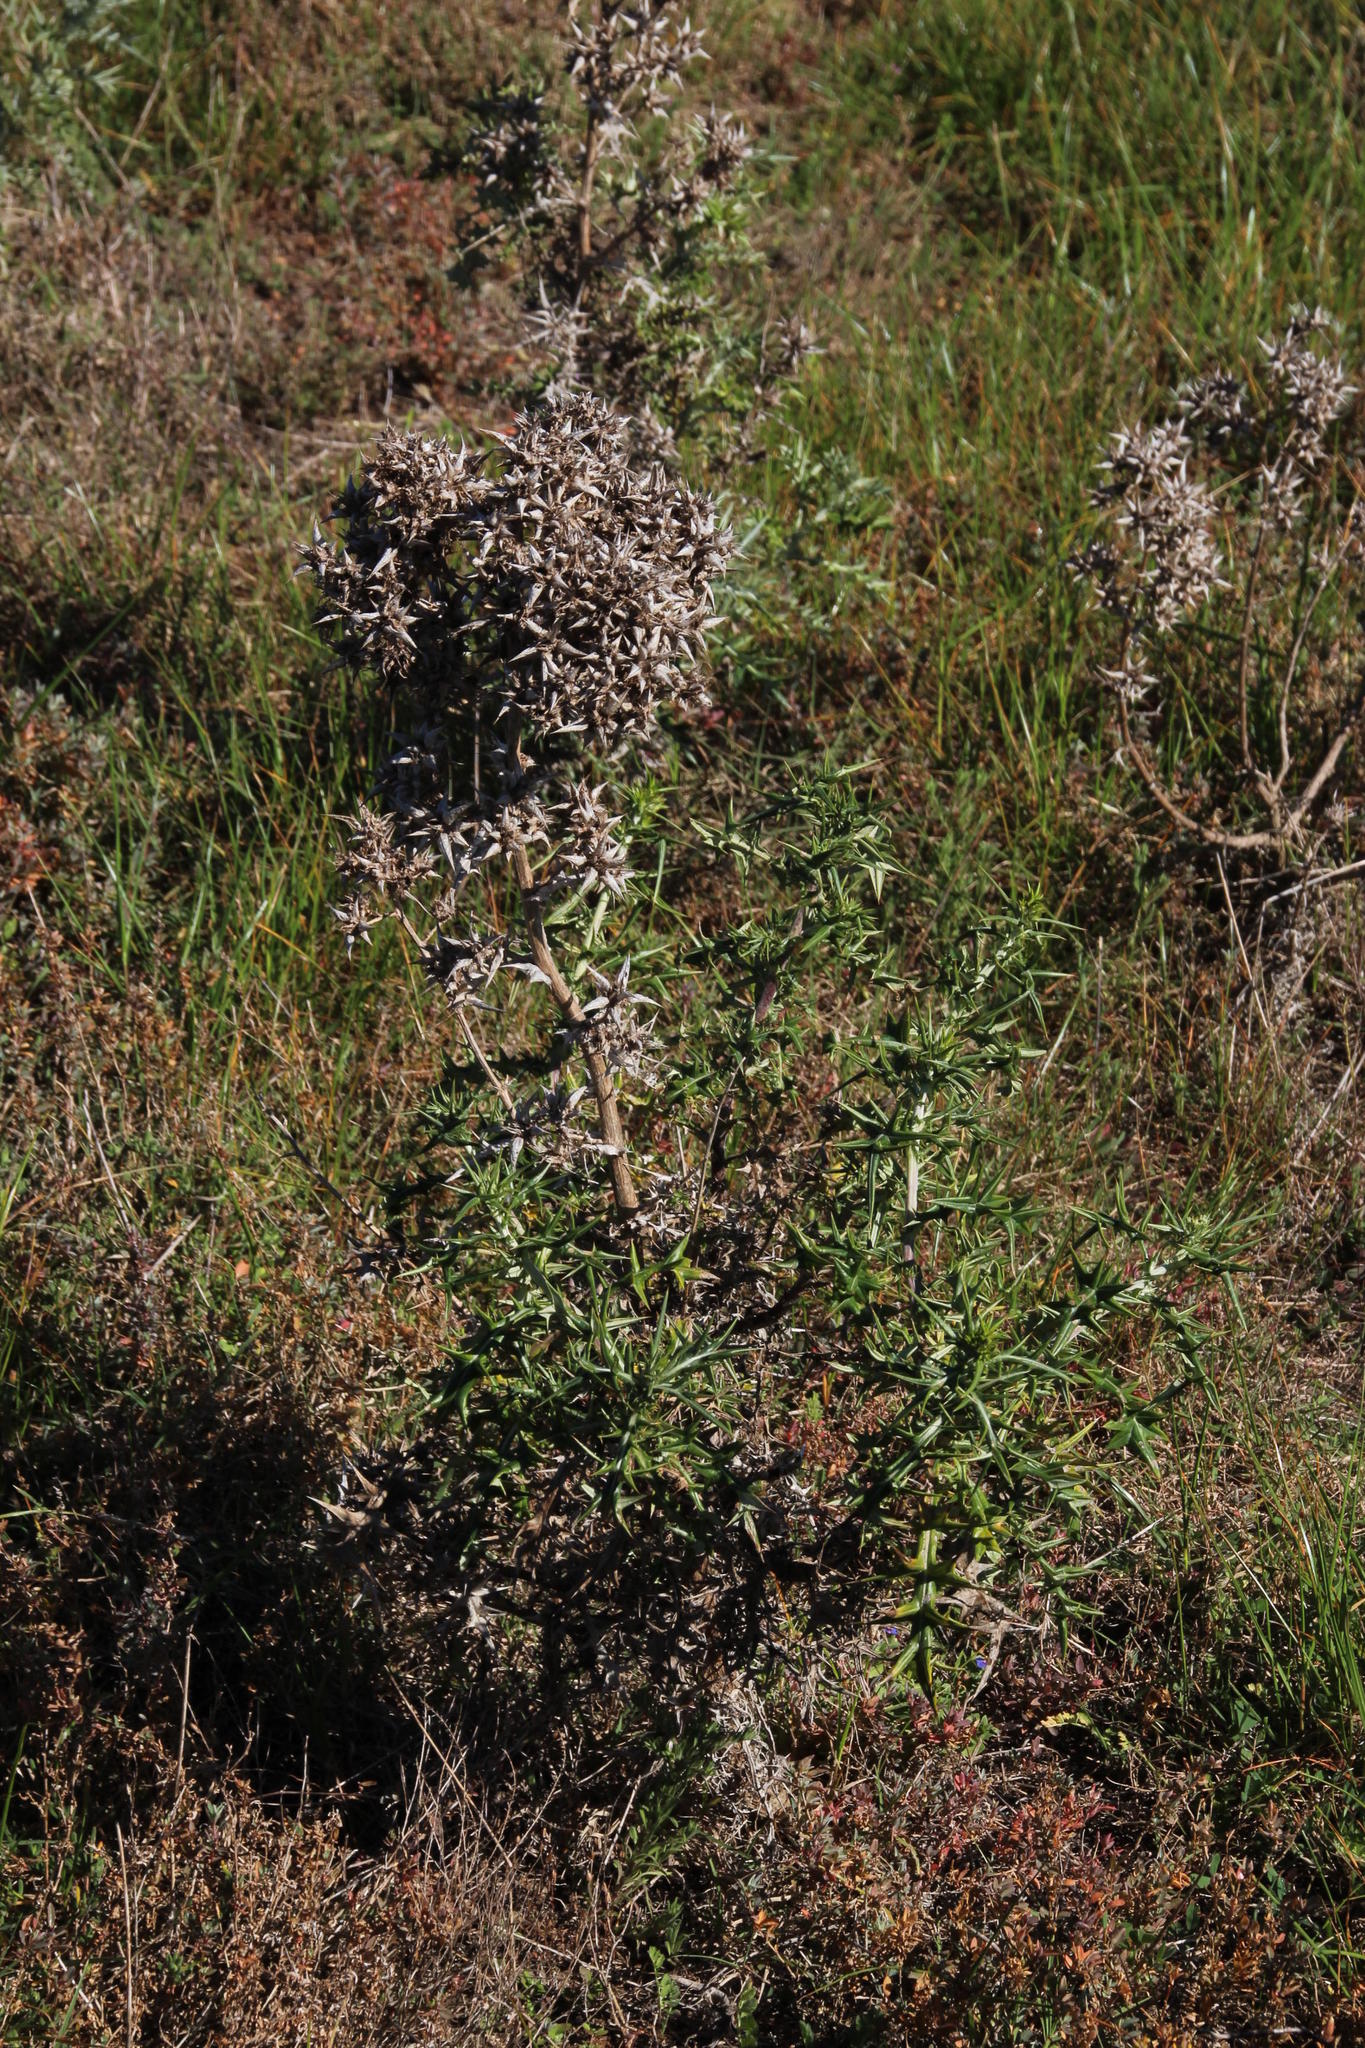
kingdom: Plantae
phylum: Tracheophyta
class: Magnoliopsida
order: Asterales
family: Asteraceae
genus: Berkheya
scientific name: Berkheya rigida
